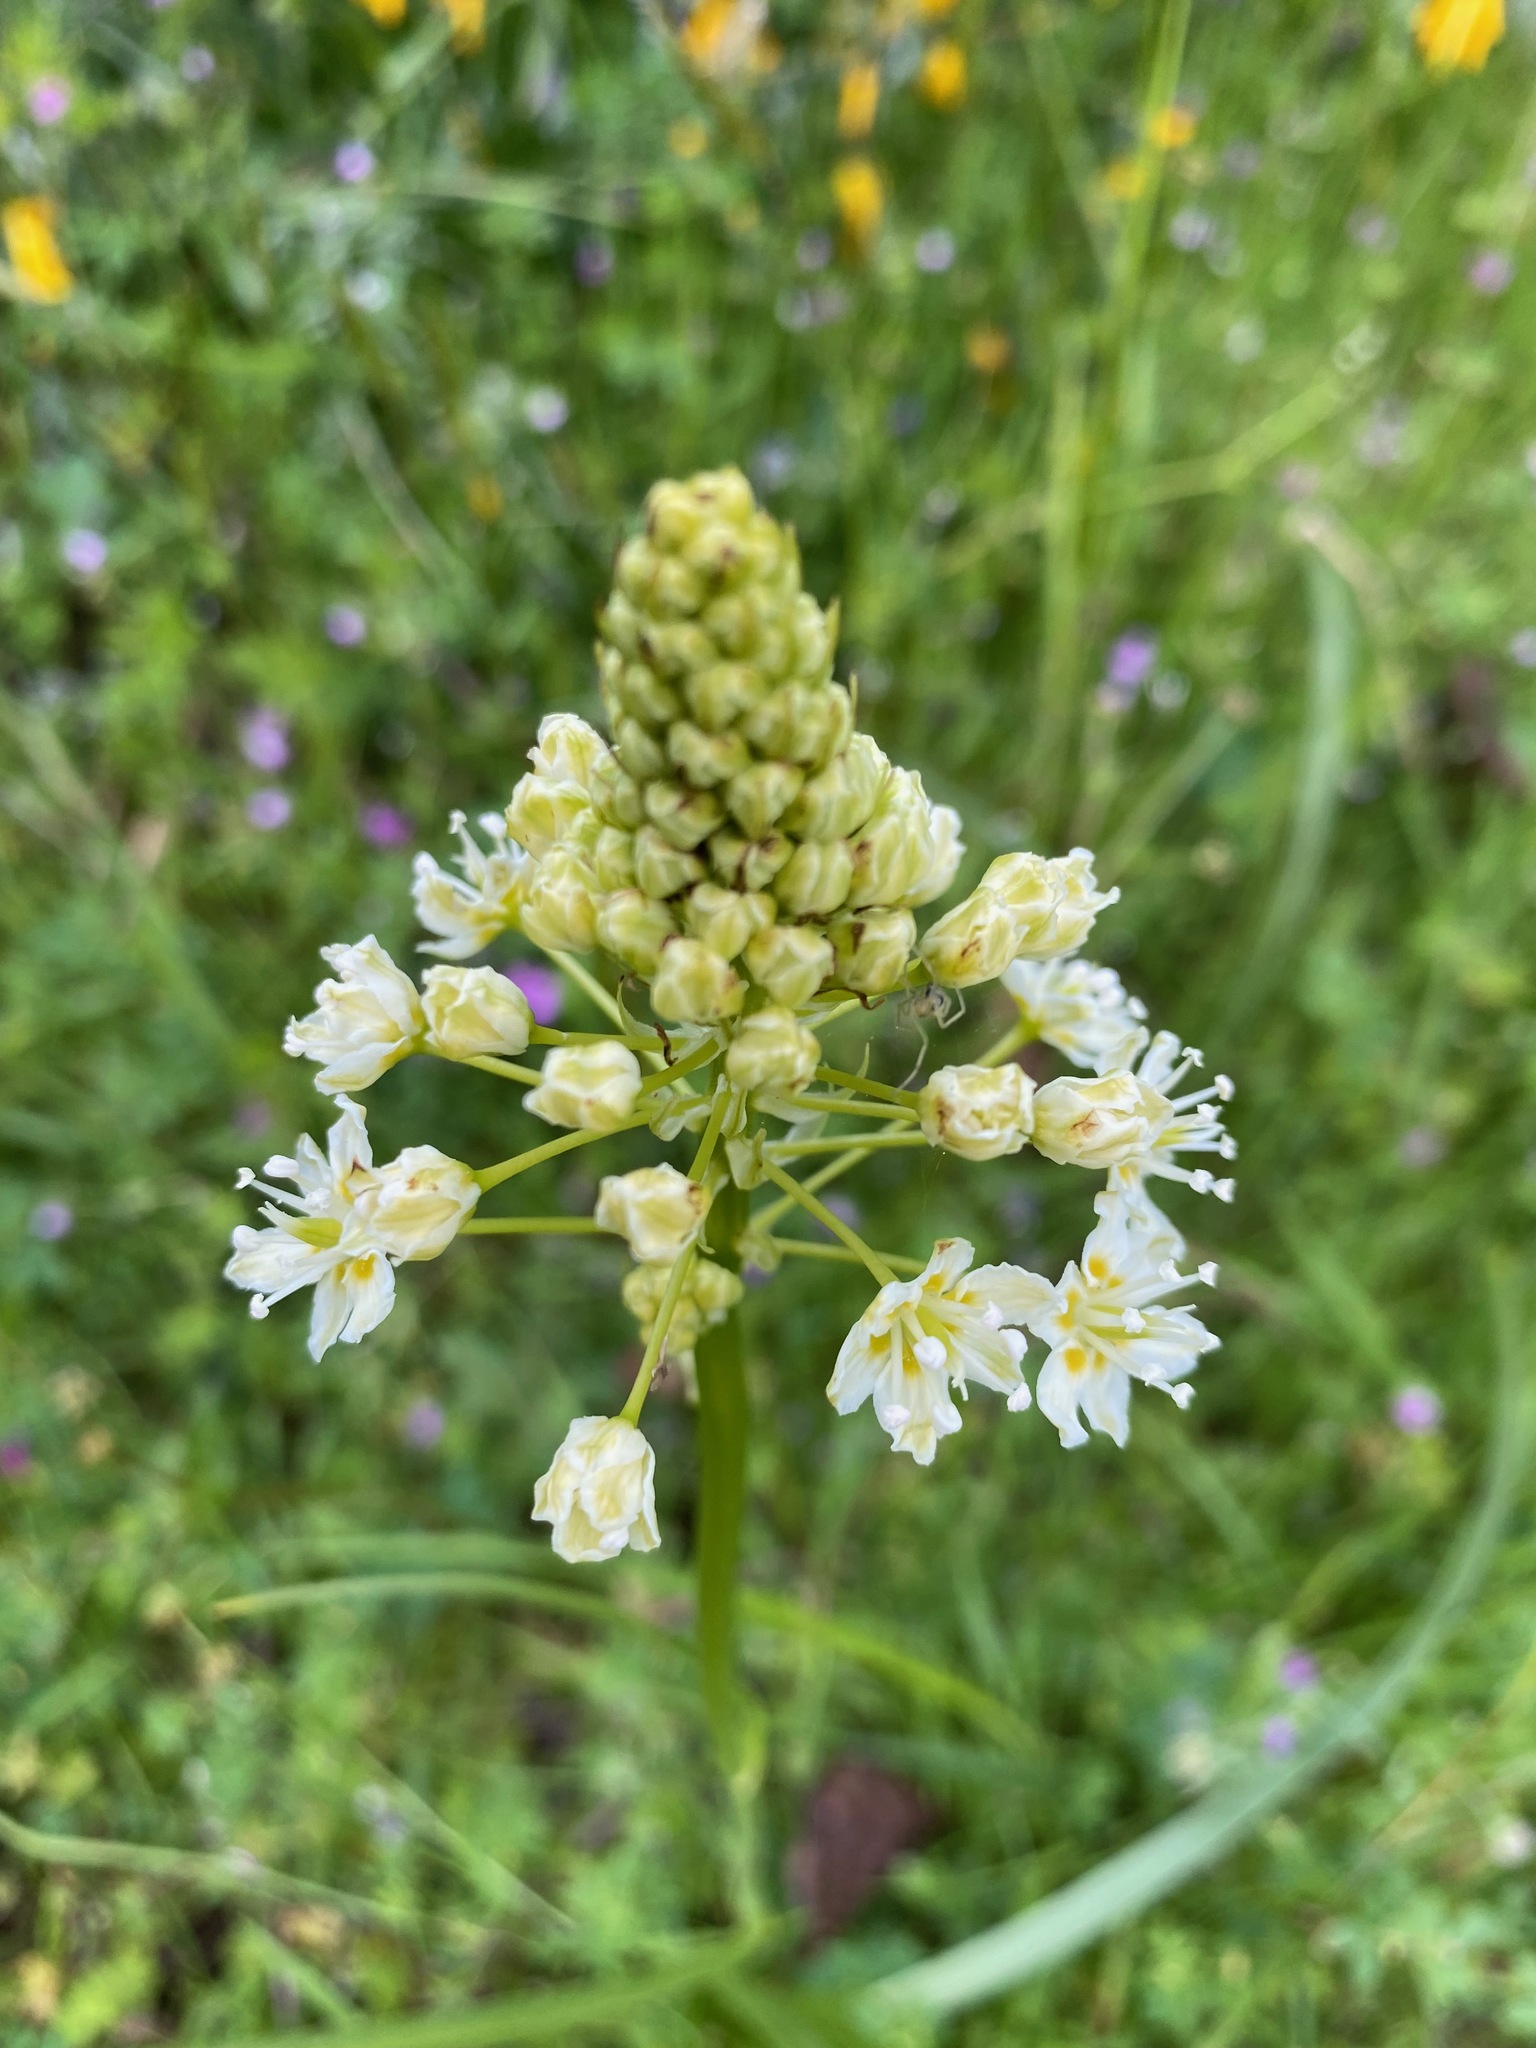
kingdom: Plantae
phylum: Tracheophyta
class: Liliopsida
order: Liliales
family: Melanthiaceae
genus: Toxicoscordion
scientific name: Toxicoscordion venenosum
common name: Meadow death camas
